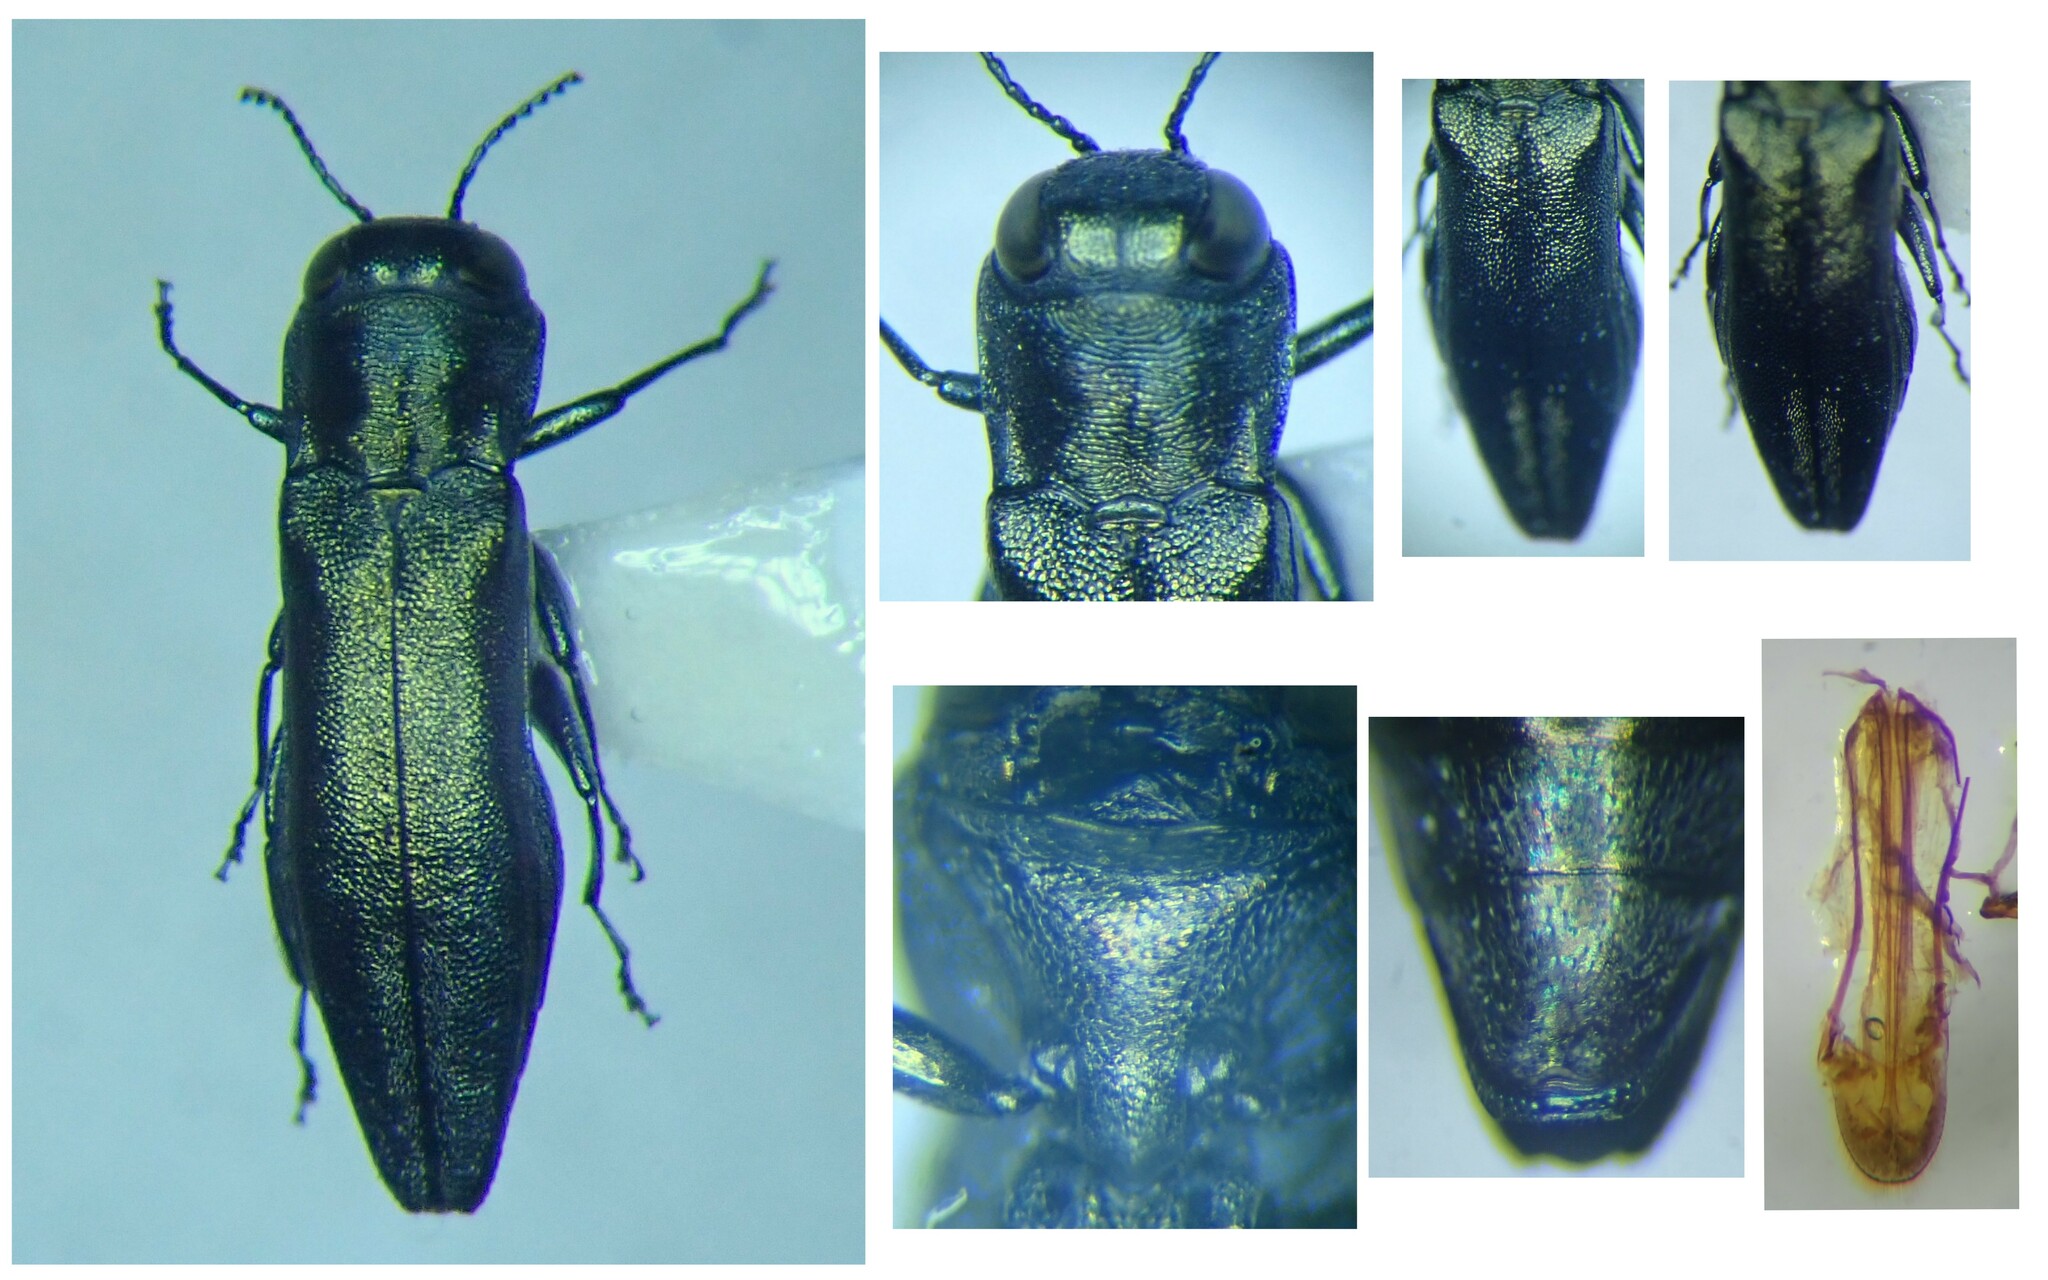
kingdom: Animalia
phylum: Arthropoda
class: Insecta
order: Coleoptera
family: Buprestidae
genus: Agrilus
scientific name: Agrilus graminis
